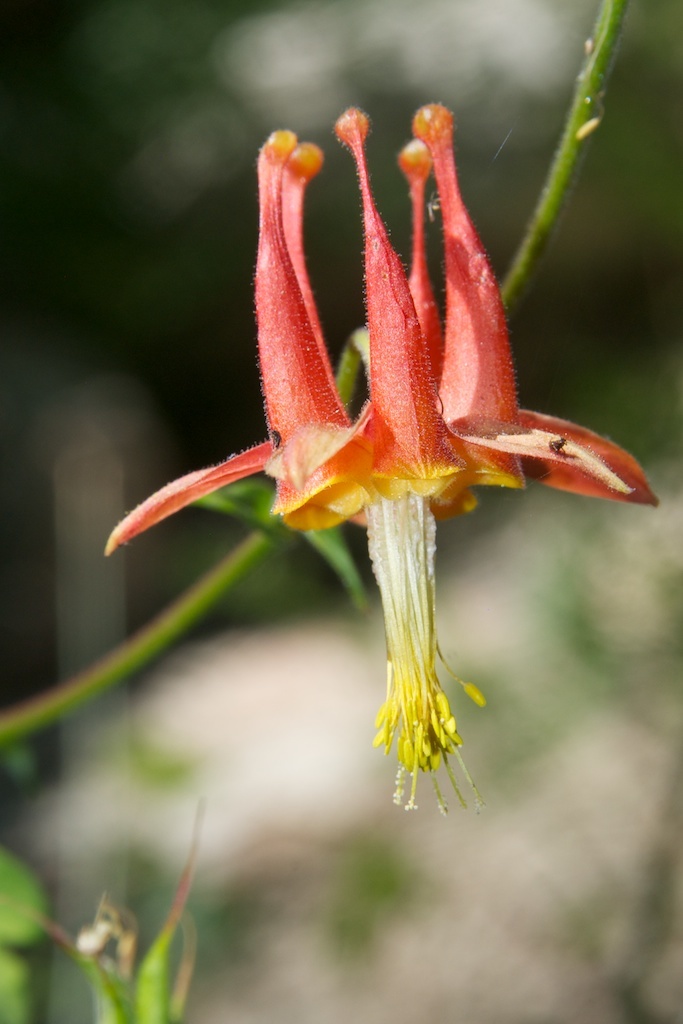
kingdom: Plantae
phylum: Tracheophyta
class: Magnoliopsida
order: Ranunculales
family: Ranunculaceae
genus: Aquilegia
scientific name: Aquilegia formosa
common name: Sitka columbine
